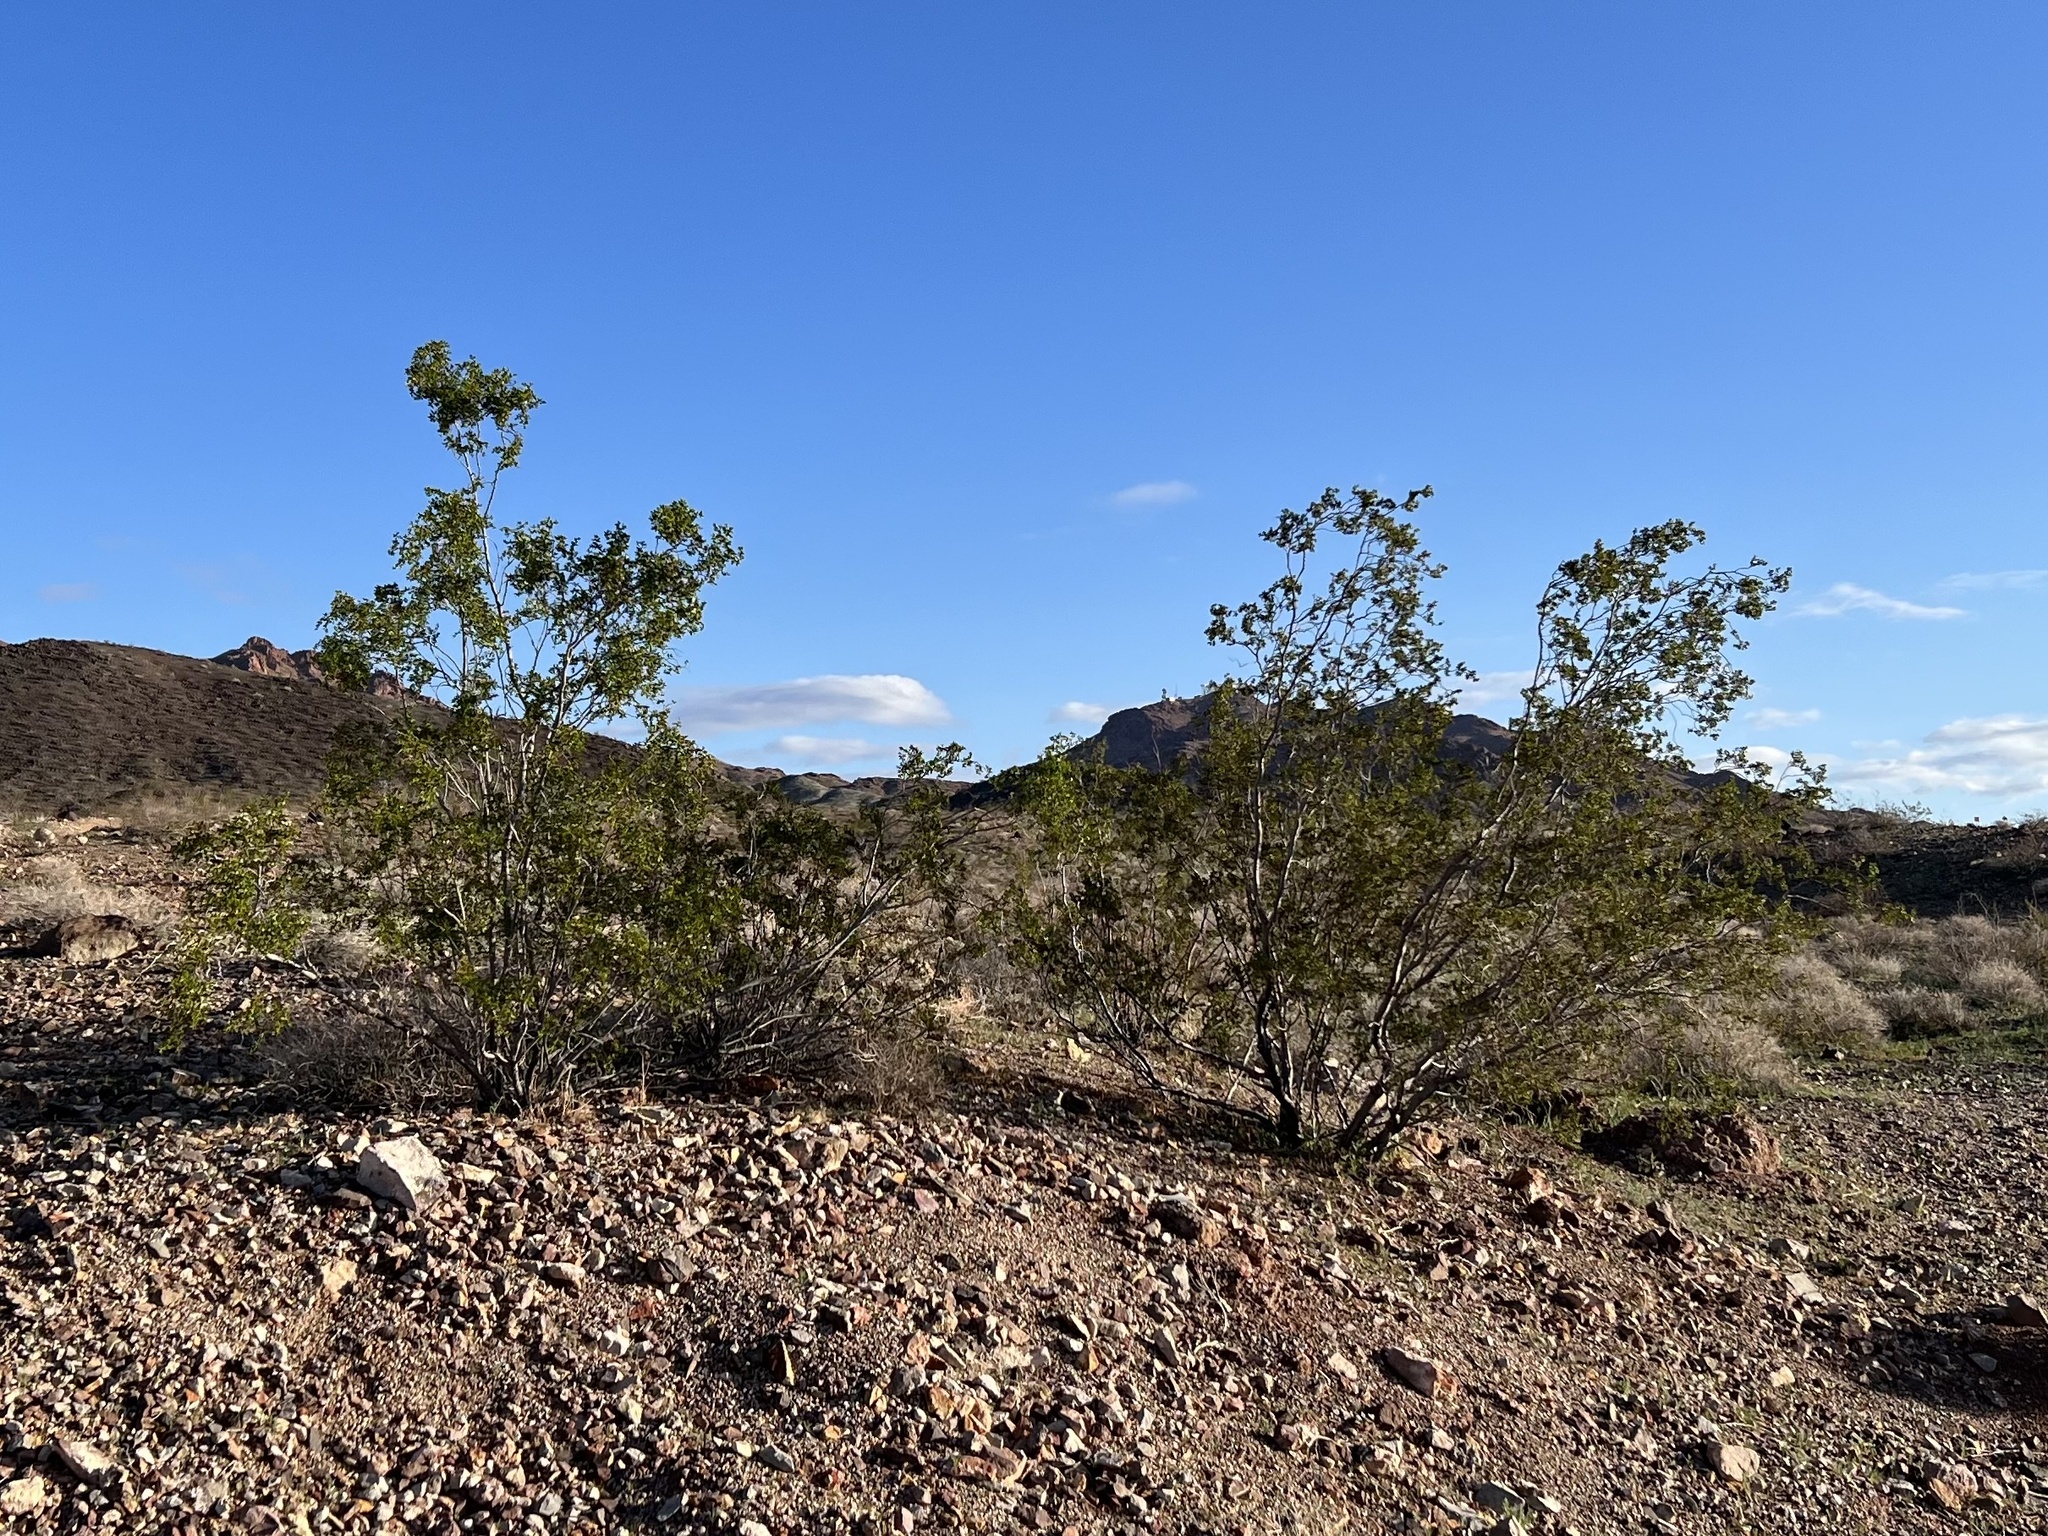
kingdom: Plantae
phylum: Tracheophyta
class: Magnoliopsida
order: Zygophyllales
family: Zygophyllaceae
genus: Larrea
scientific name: Larrea tridentata
